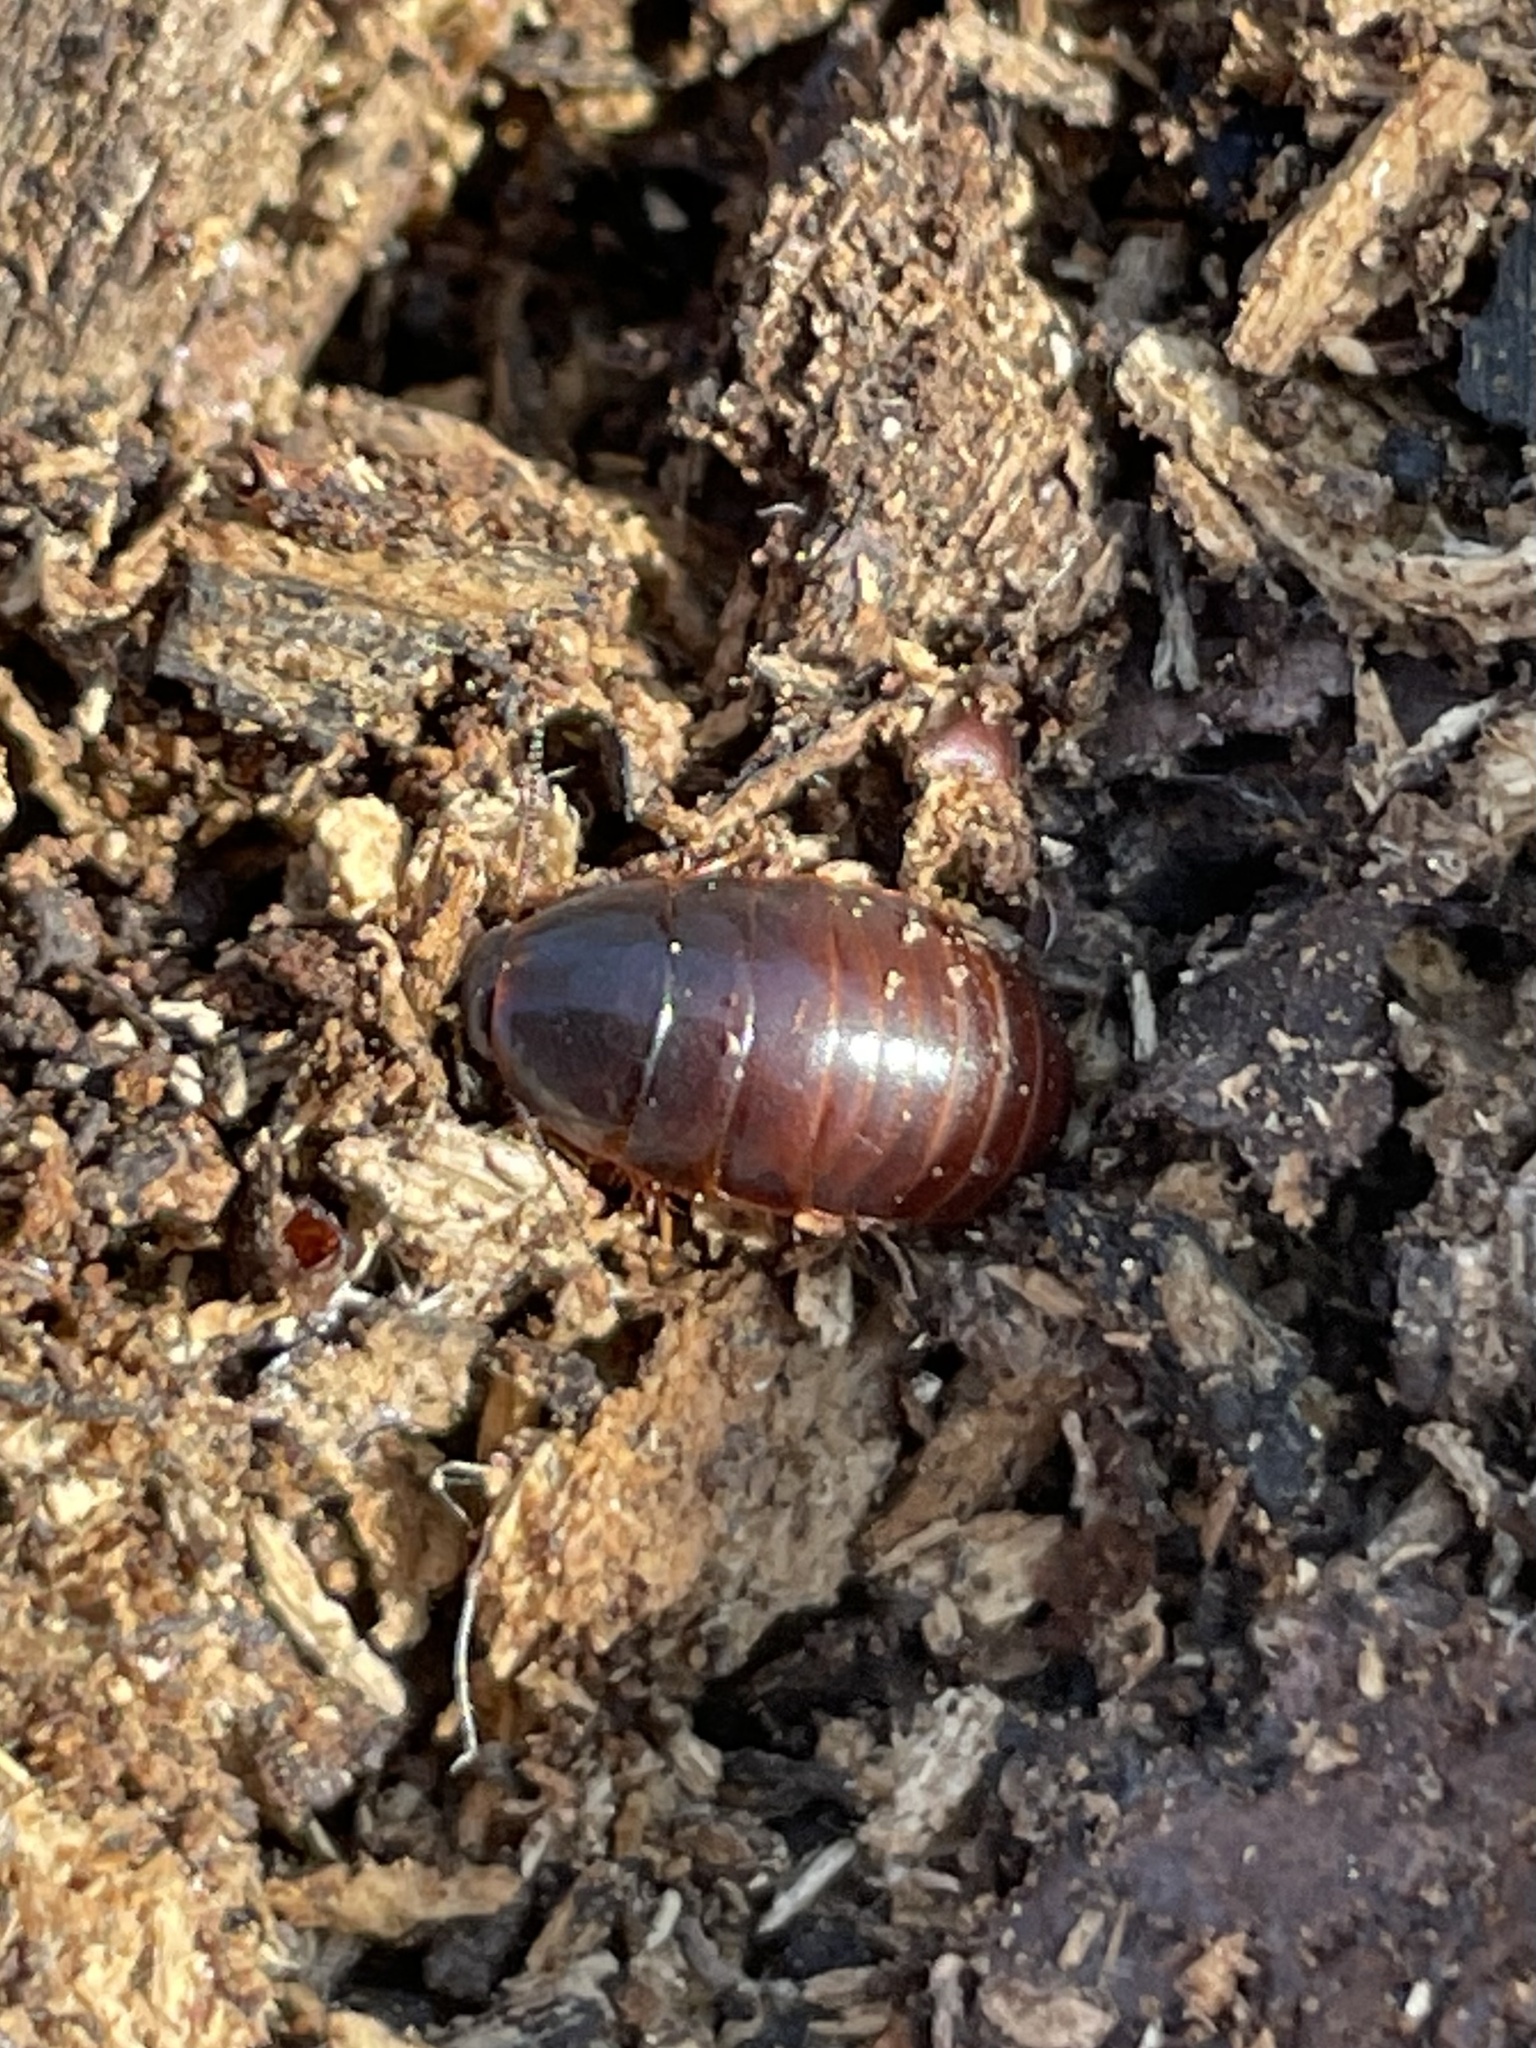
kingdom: Animalia
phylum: Arthropoda
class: Insecta
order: Blattodea
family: Blaberidae
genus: Pycnoscelus
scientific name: Pycnoscelus surinamensis
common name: Surinam cockroach
